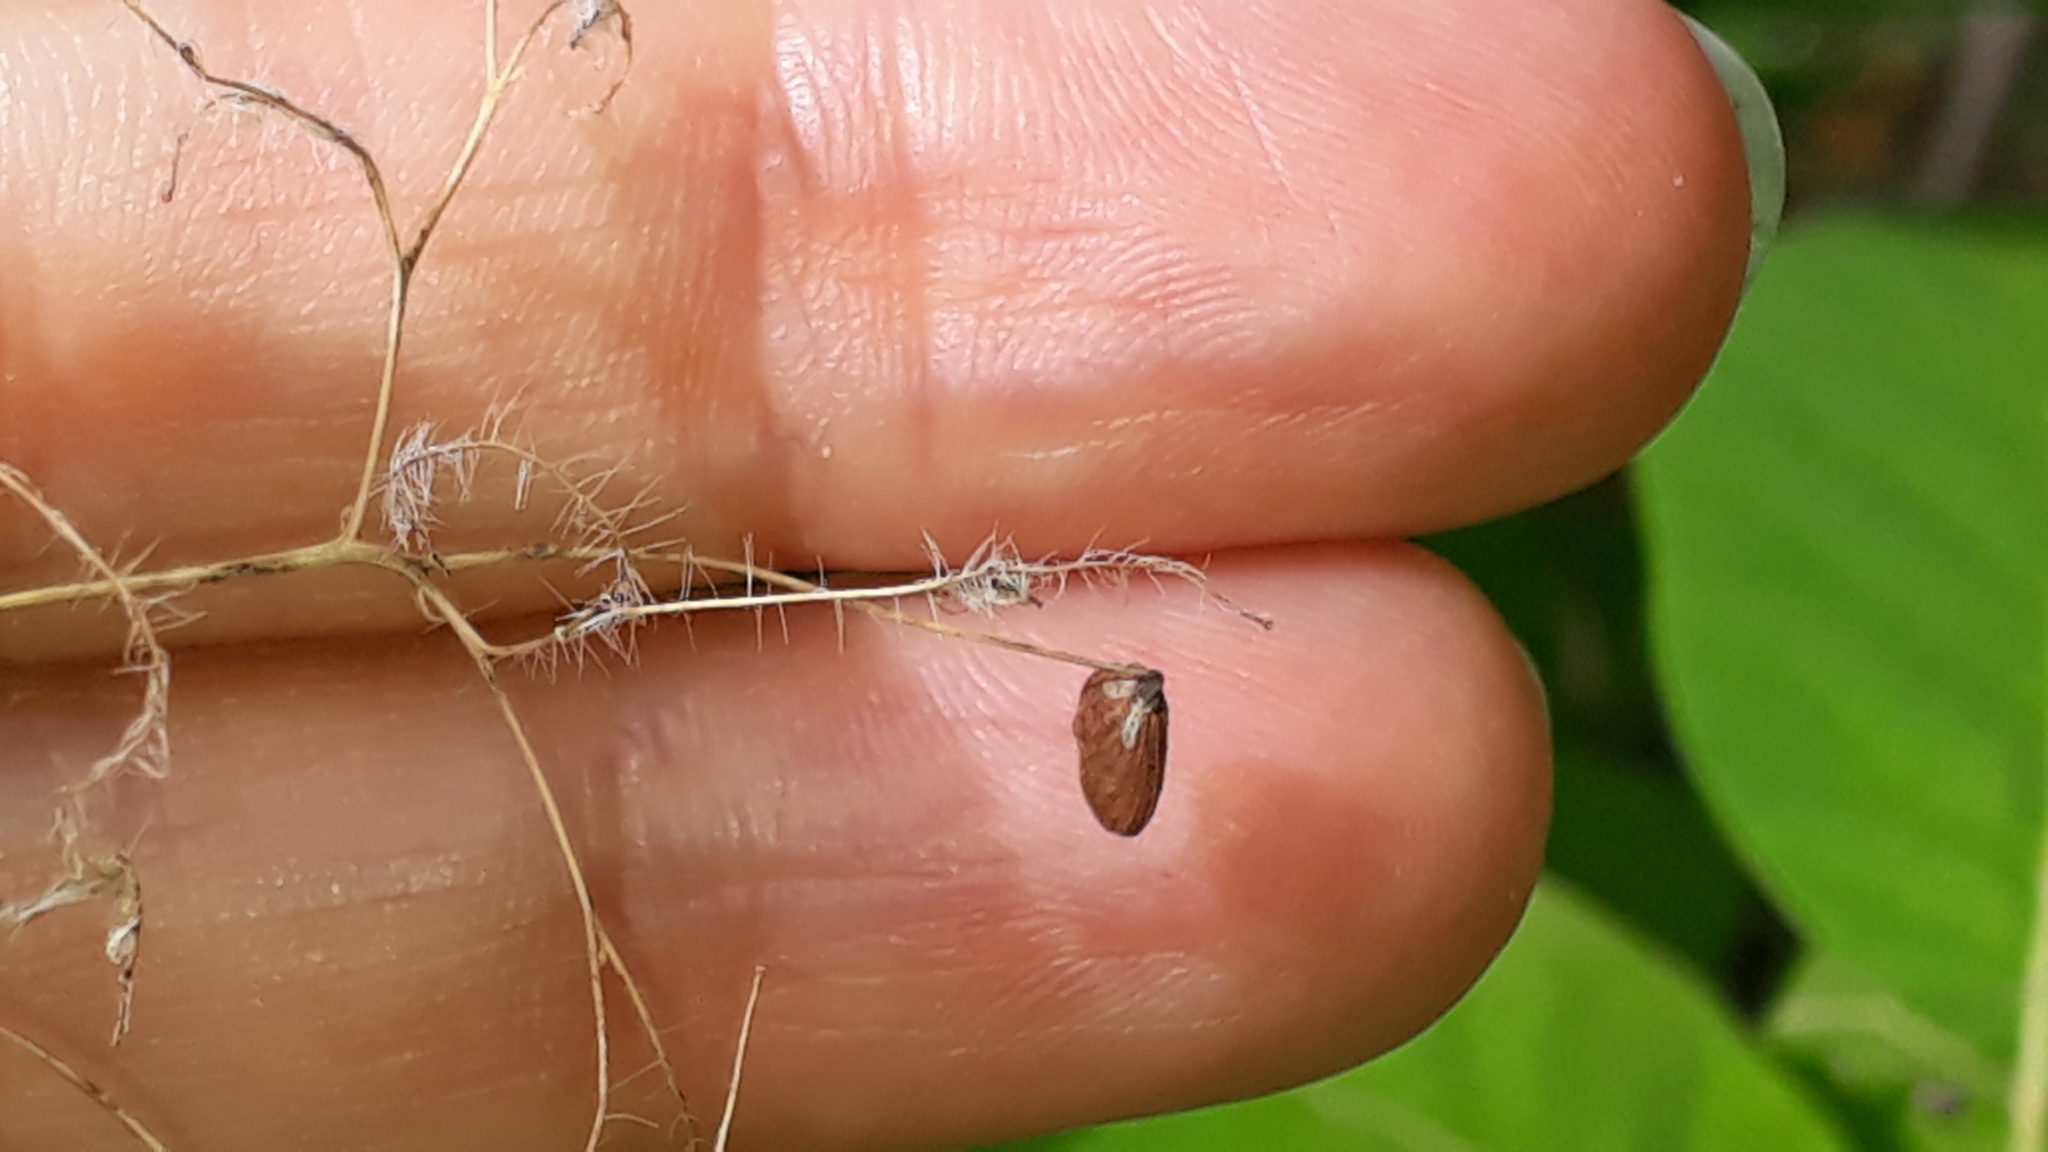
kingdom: Plantae
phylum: Tracheophyta
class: Magnoliopsida
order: Sapindales
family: Anacardiaceae
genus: Cotinus
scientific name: Cotinus coggygria
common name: Smoke-tree
